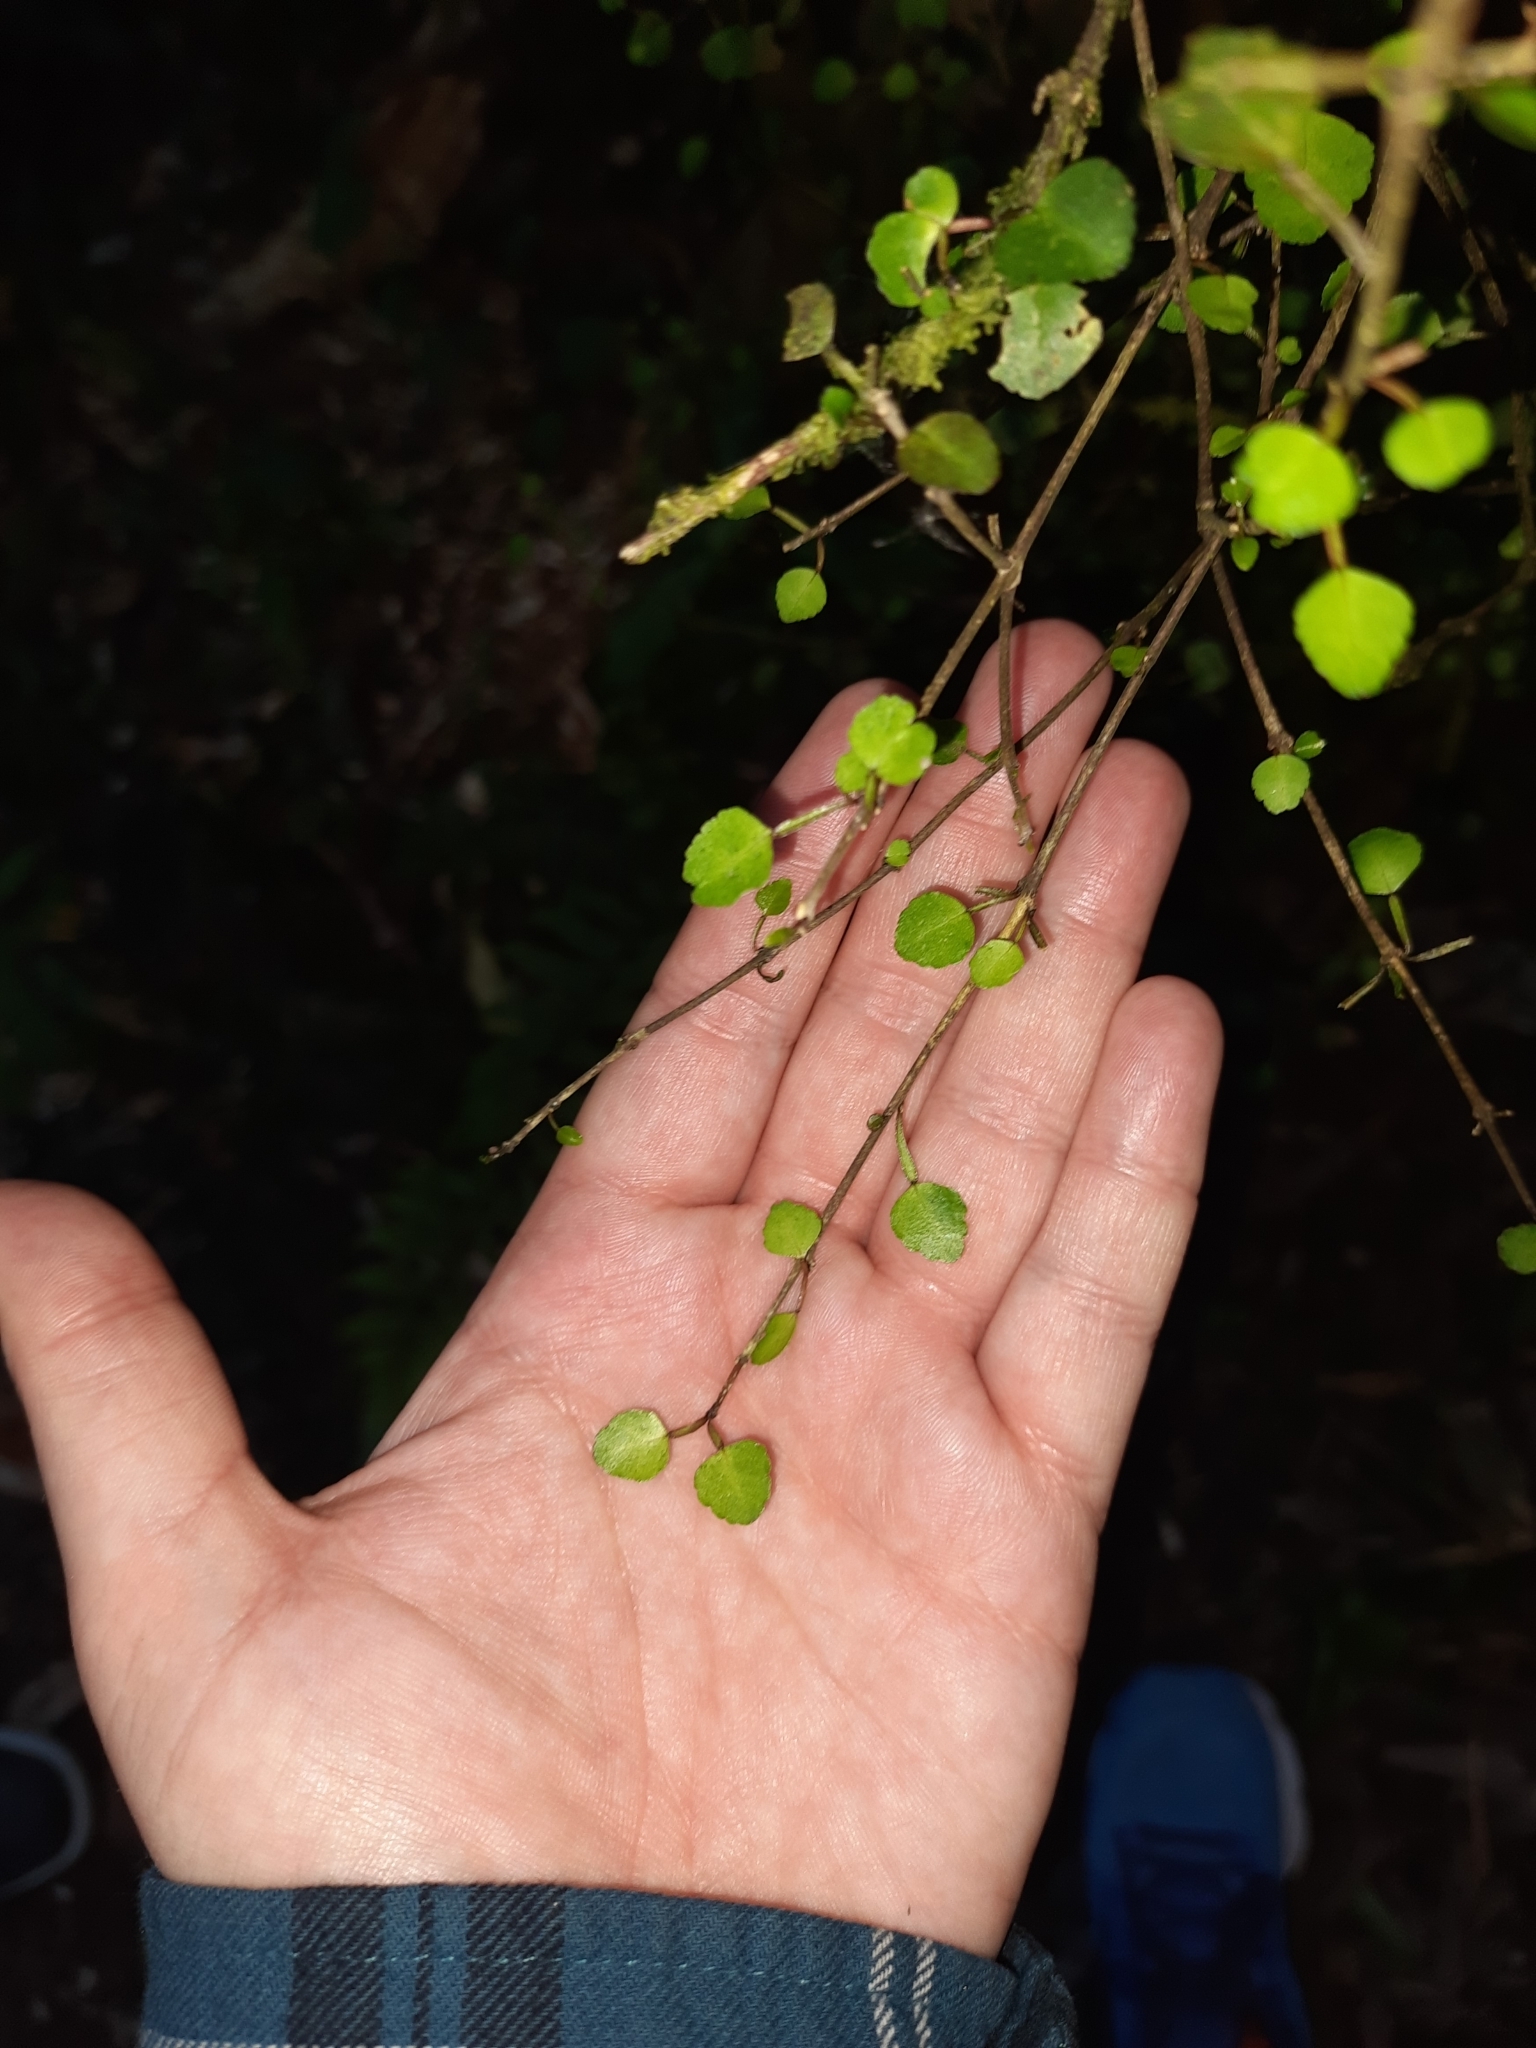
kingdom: Plantae
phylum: Tracheophyta
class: Magnoliopsida
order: Sapindales
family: Rutaceae
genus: Melicope
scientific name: Melicope simplex
